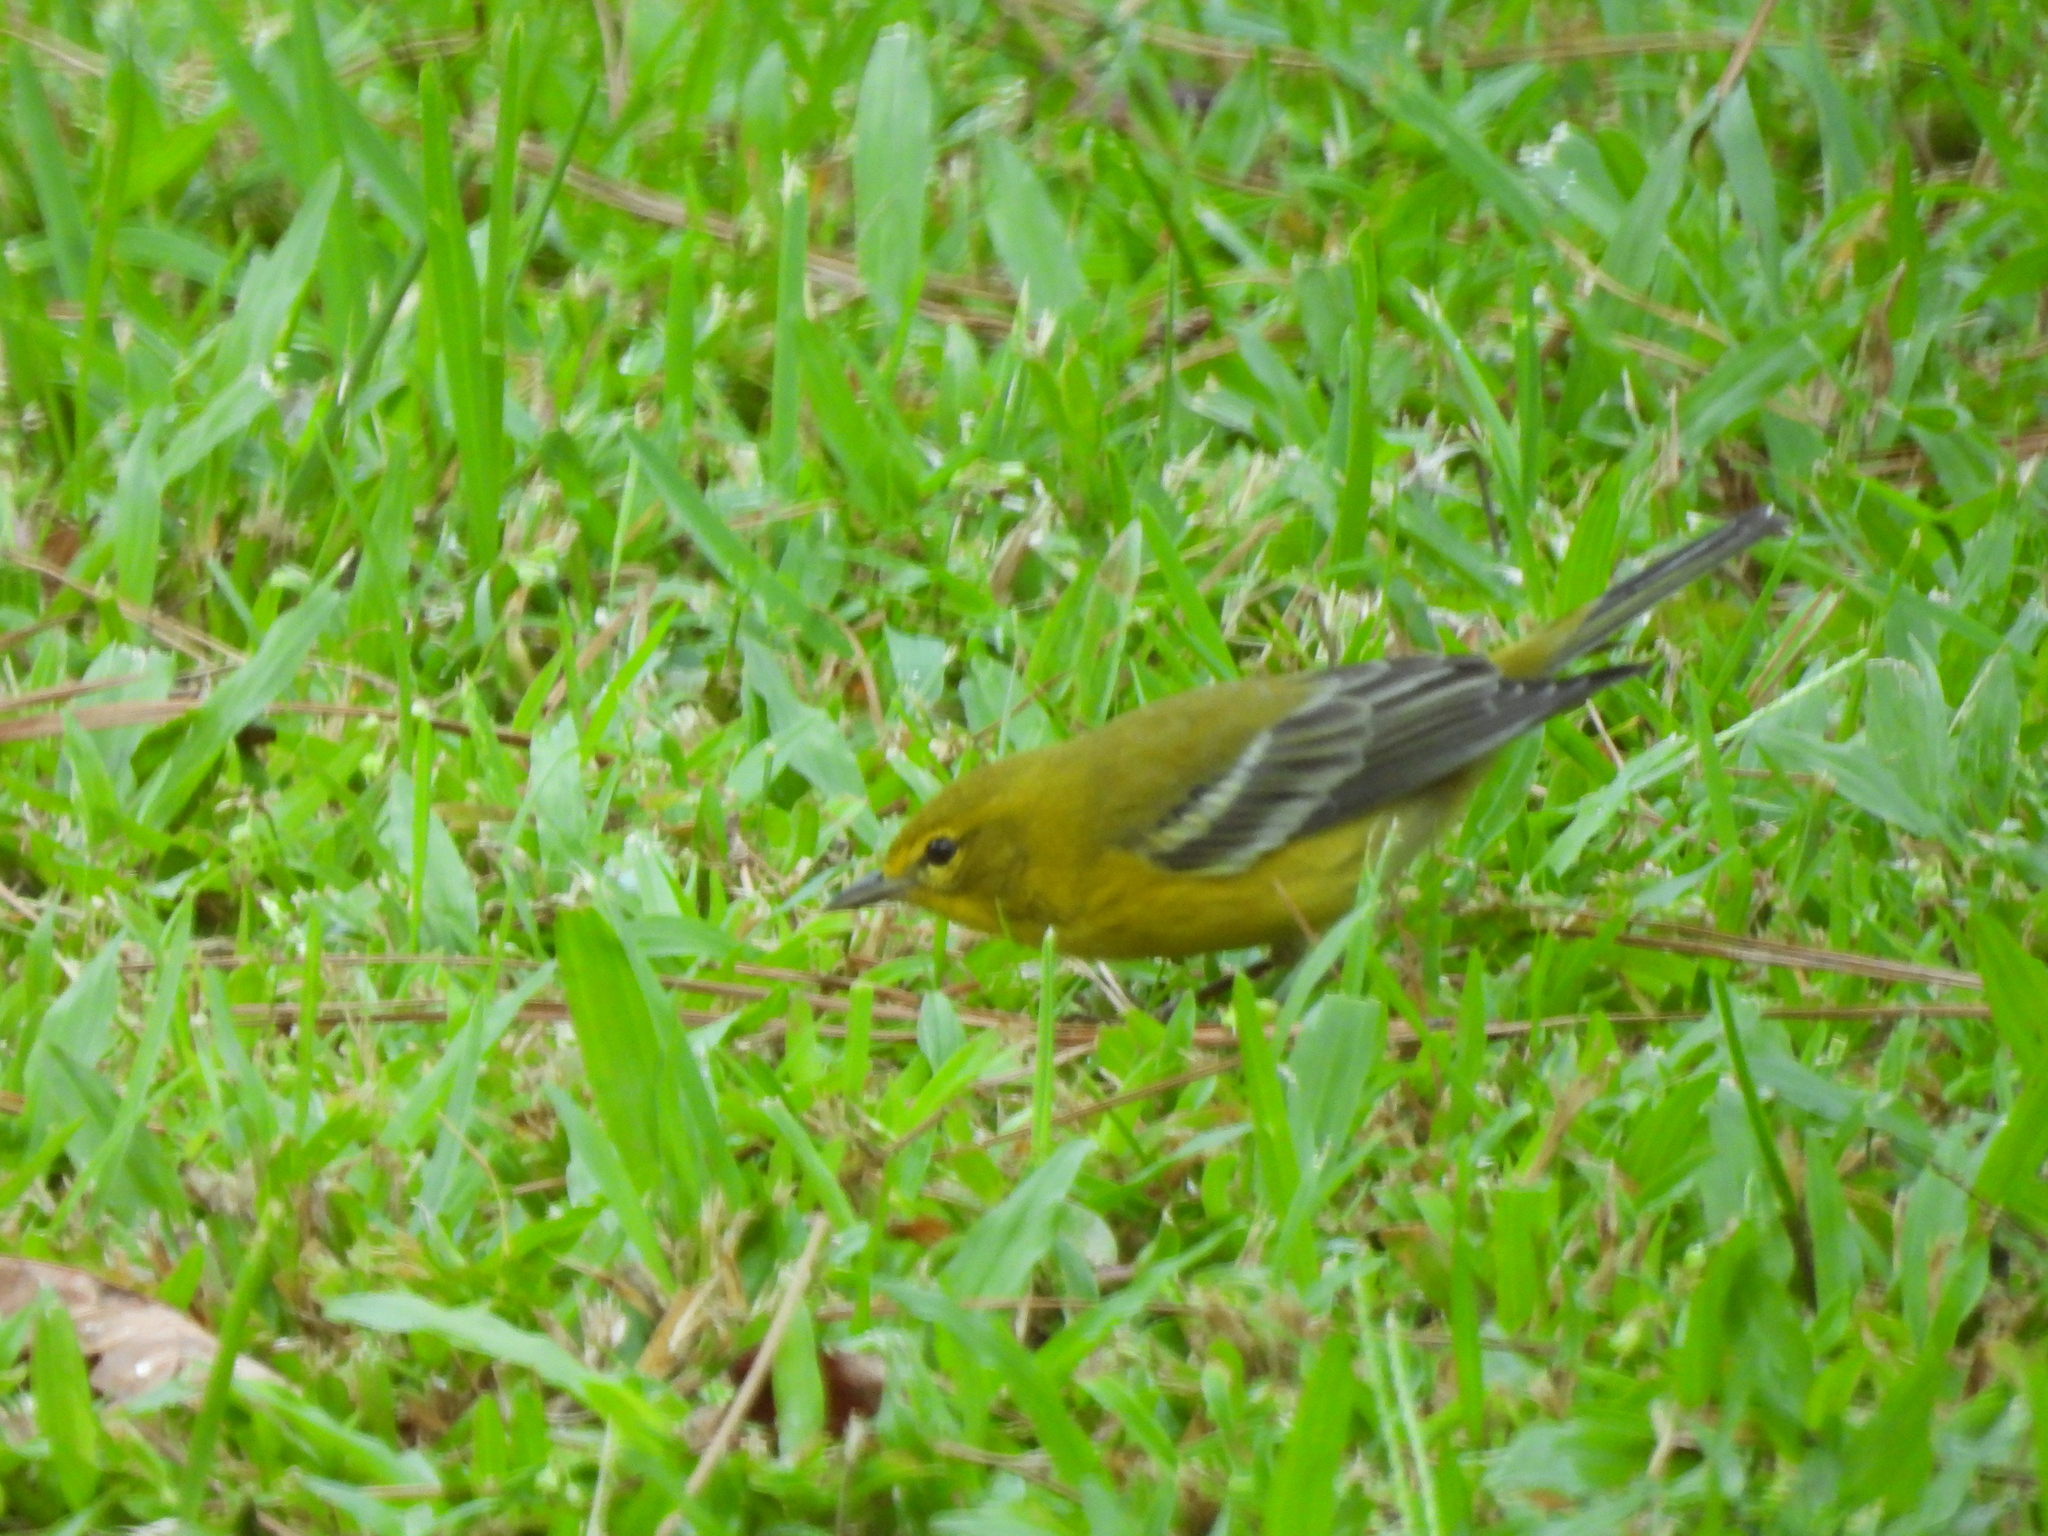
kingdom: Animalia
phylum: Chordata
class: Aves
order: Passeriformes
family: Parulidae
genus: Setophaga
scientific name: Setophaga pinus
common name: Pine warbler
